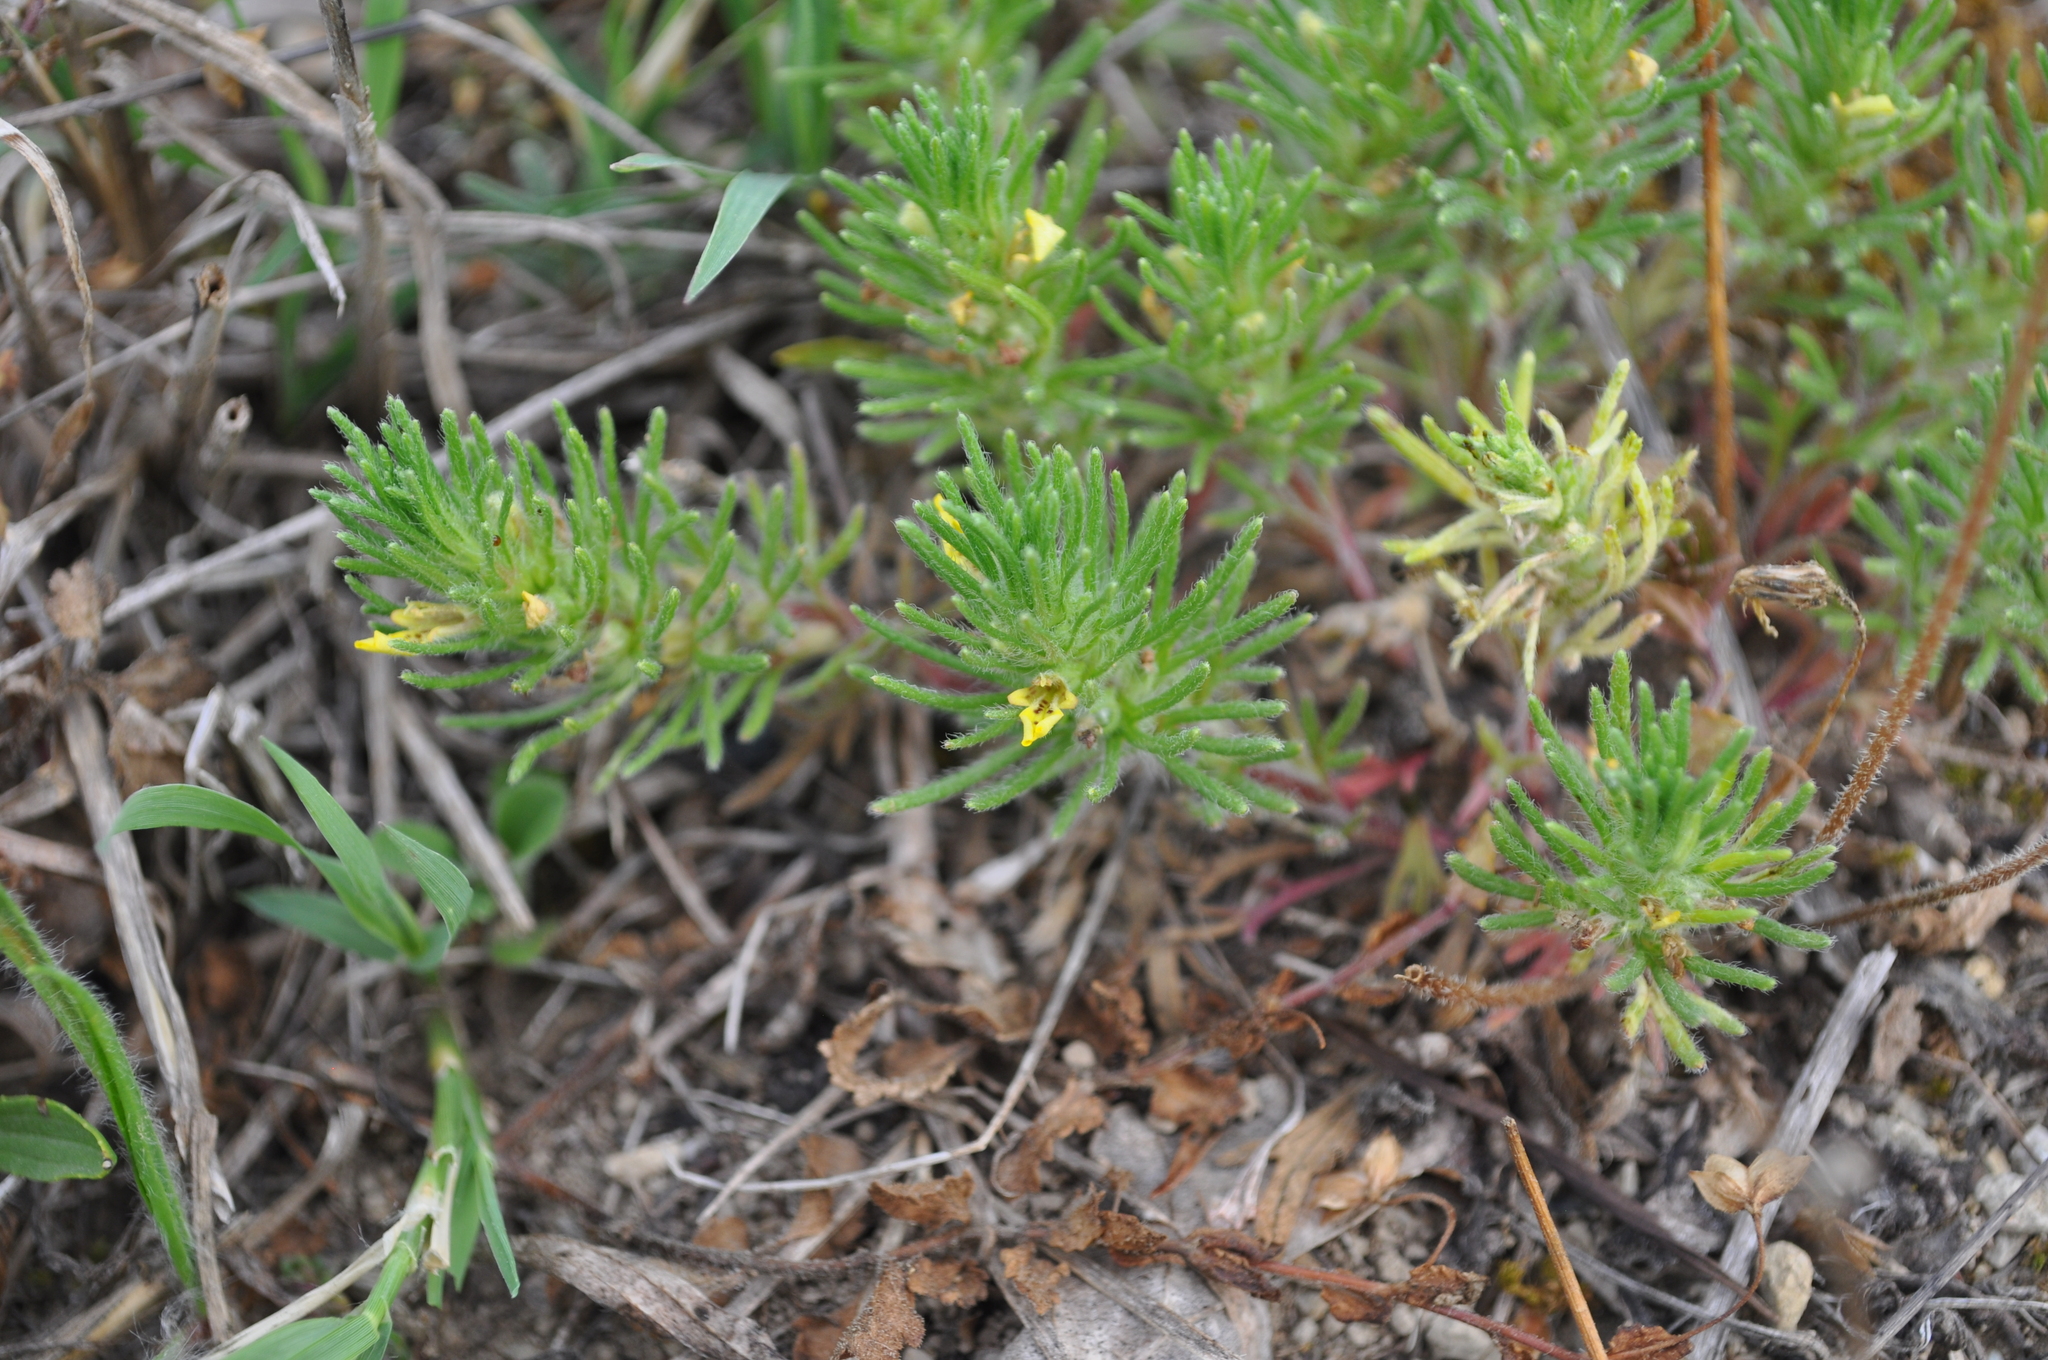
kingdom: Plantae
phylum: Tracheophyta
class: Magnoliopsida
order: Lamiales
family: Lamiaceae
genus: Ajuga
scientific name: Ajuga chamaepitys
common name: Ground-pine
